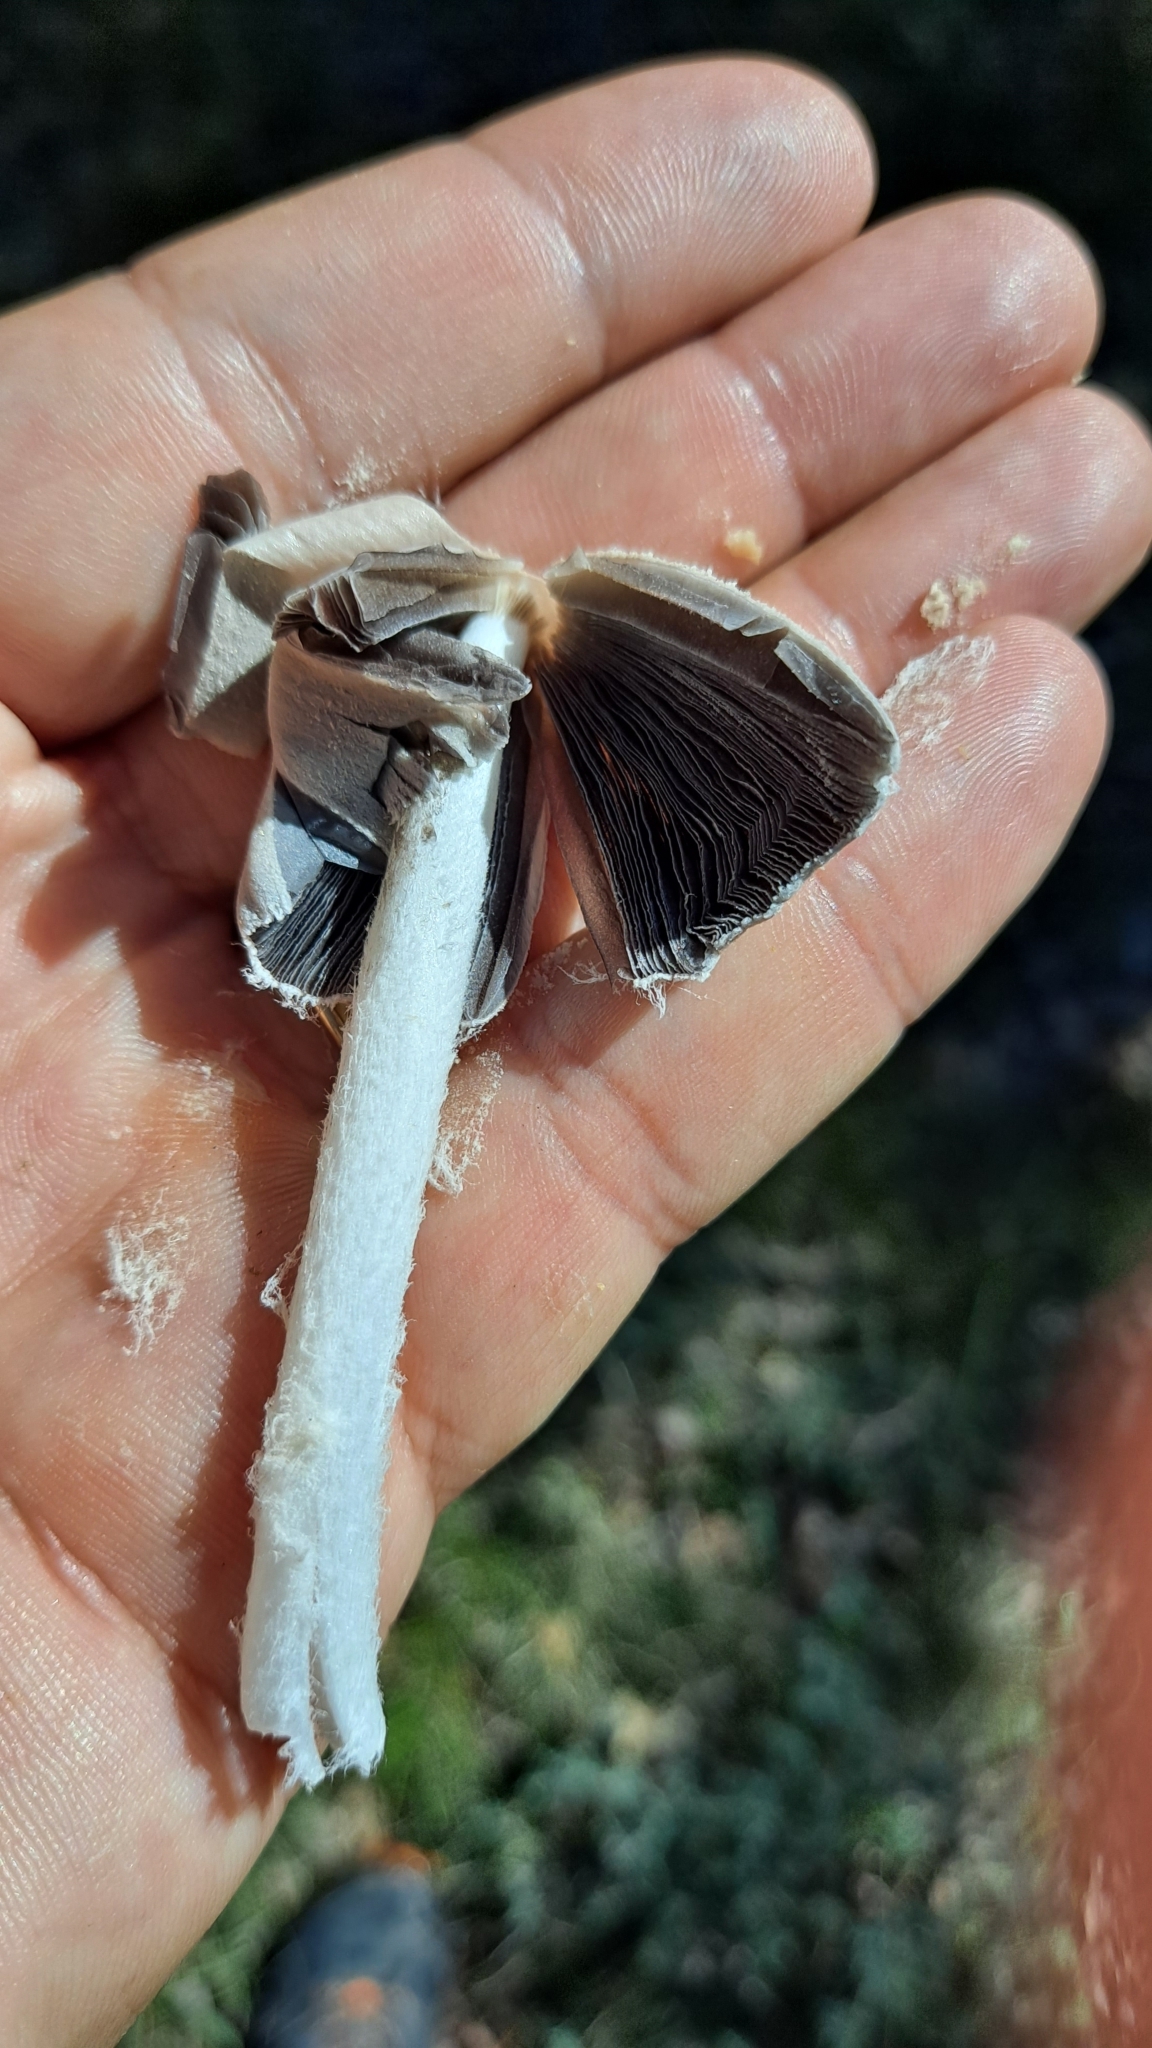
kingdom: Fungi
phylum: Basidiomycota
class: Agaricomycetes
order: Agaricales
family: Psathyrellaceae
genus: Coprinopsis
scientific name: Coprinopsis pseudonivea
